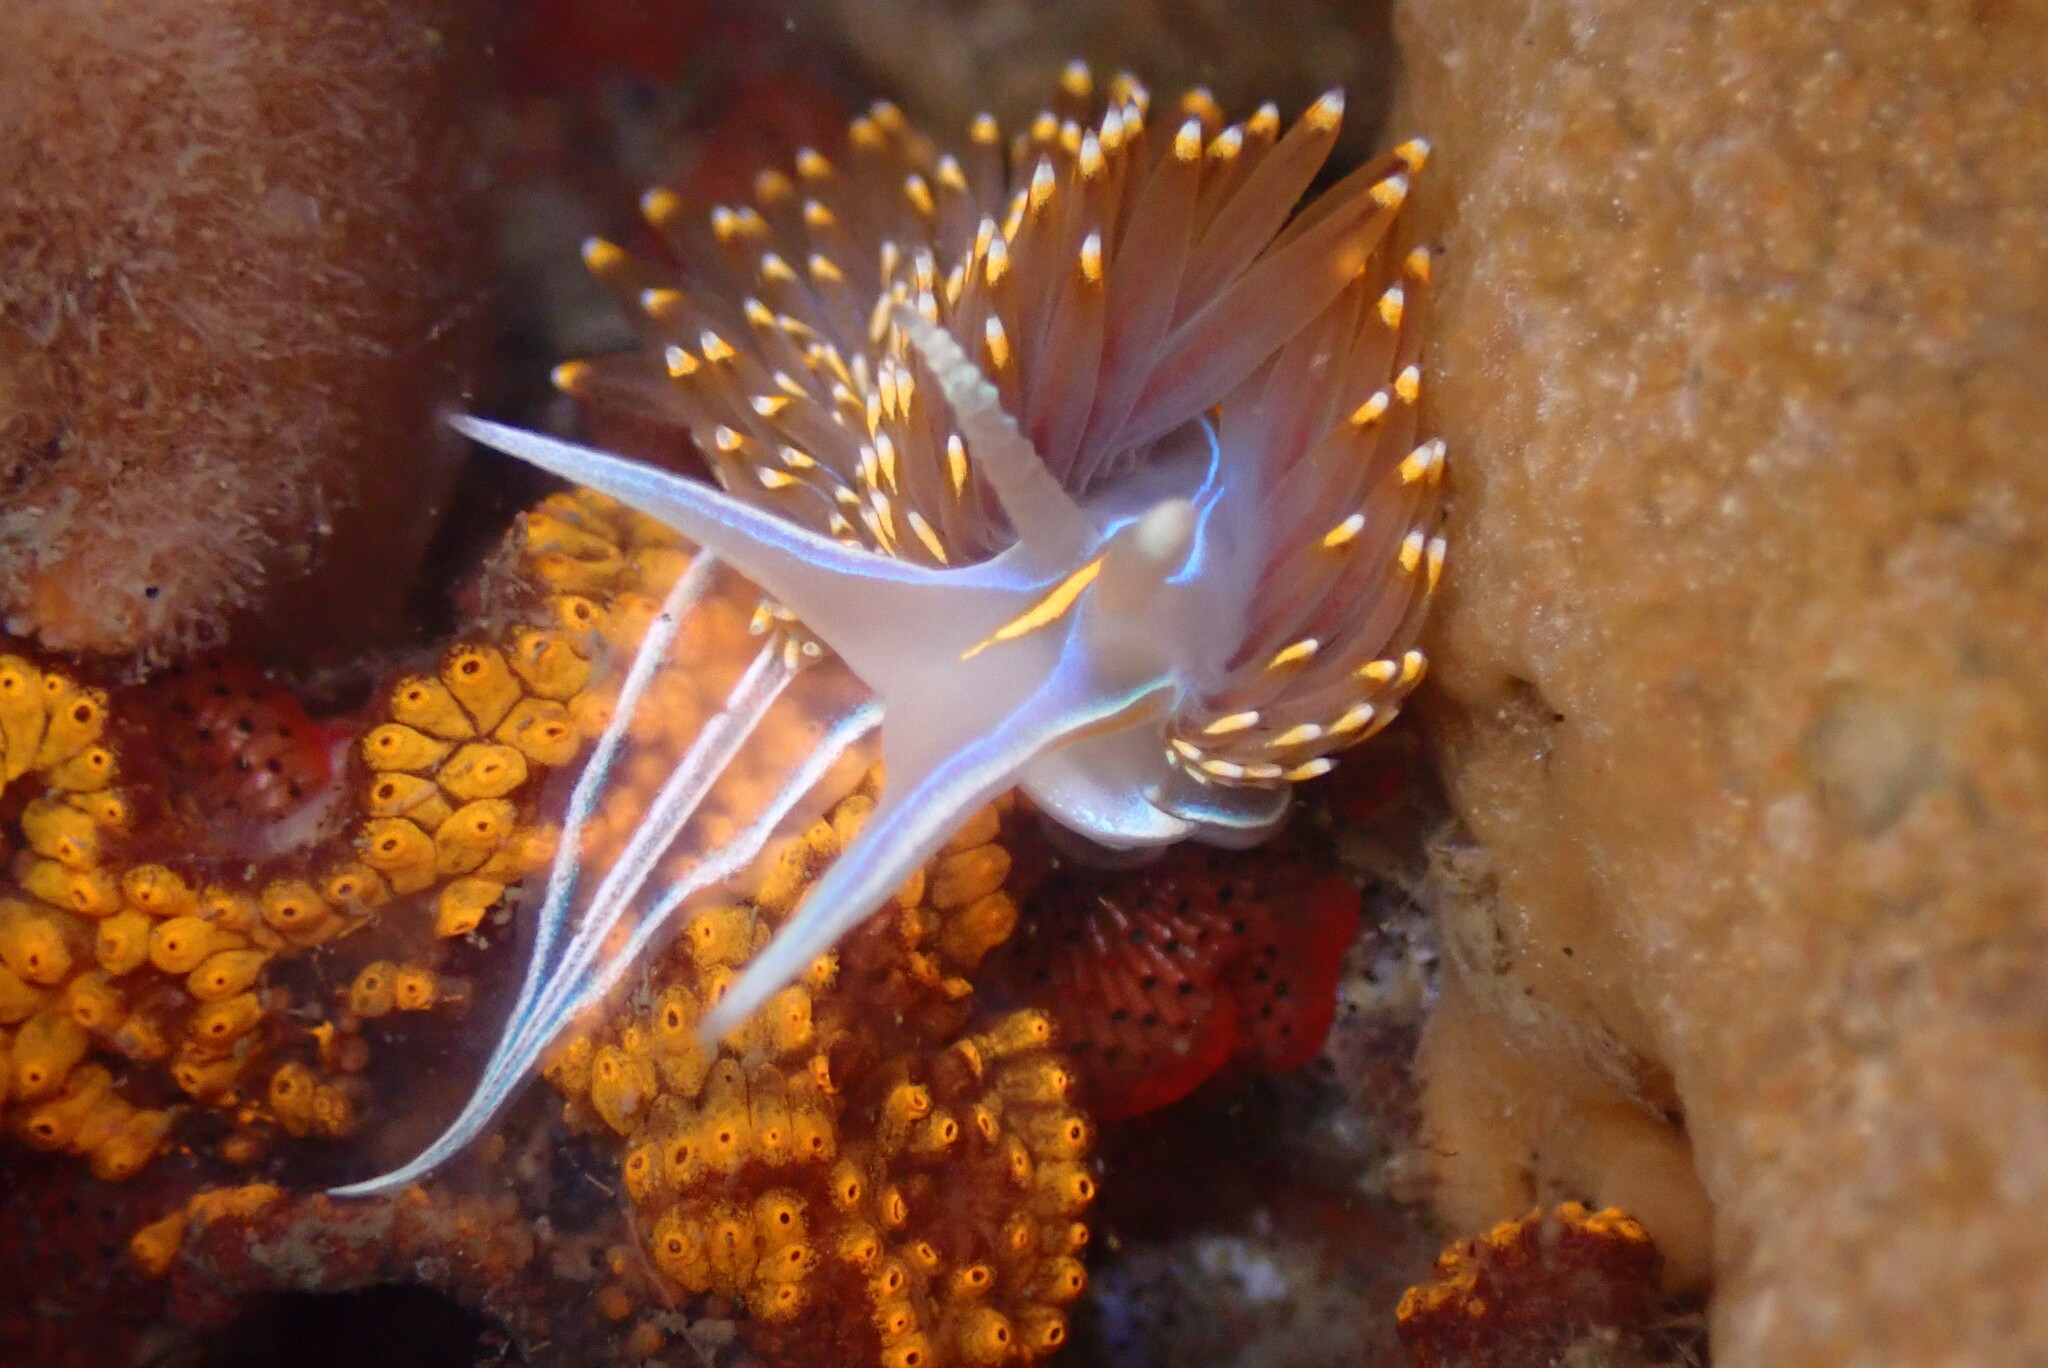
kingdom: Animalia
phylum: Mollusca
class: Gastropoda
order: Nudibranchia
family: Myrrhinidae
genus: Hermissenda
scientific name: Hermissenda opalescens
